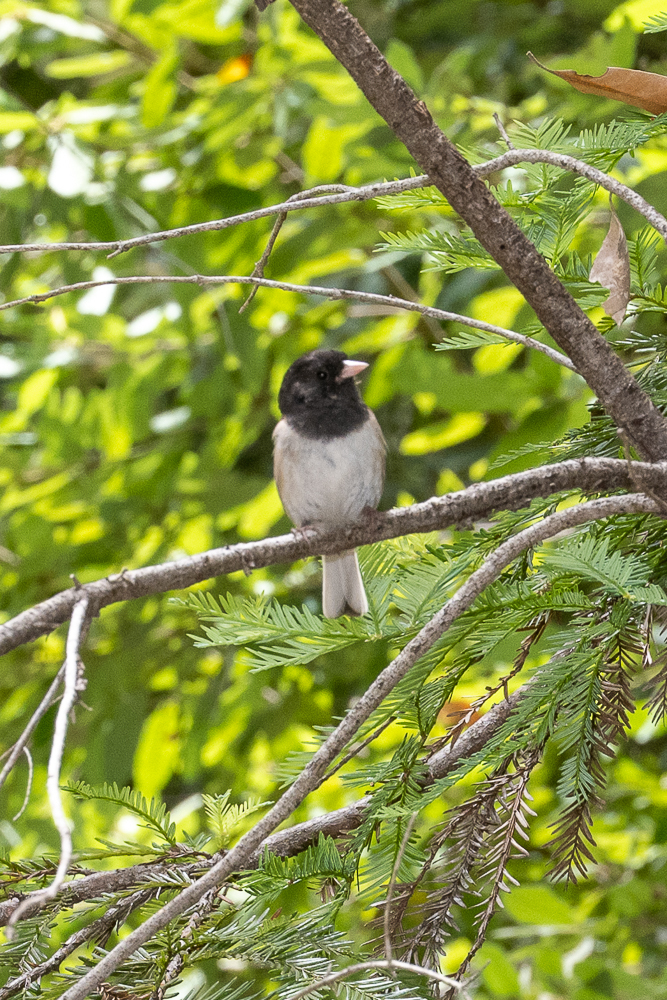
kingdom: Animalia
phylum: Chordata
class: Aves
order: Passeriformes
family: Passerellidae
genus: Junco
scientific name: Junco hyemalis
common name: Dark-eyed junco
